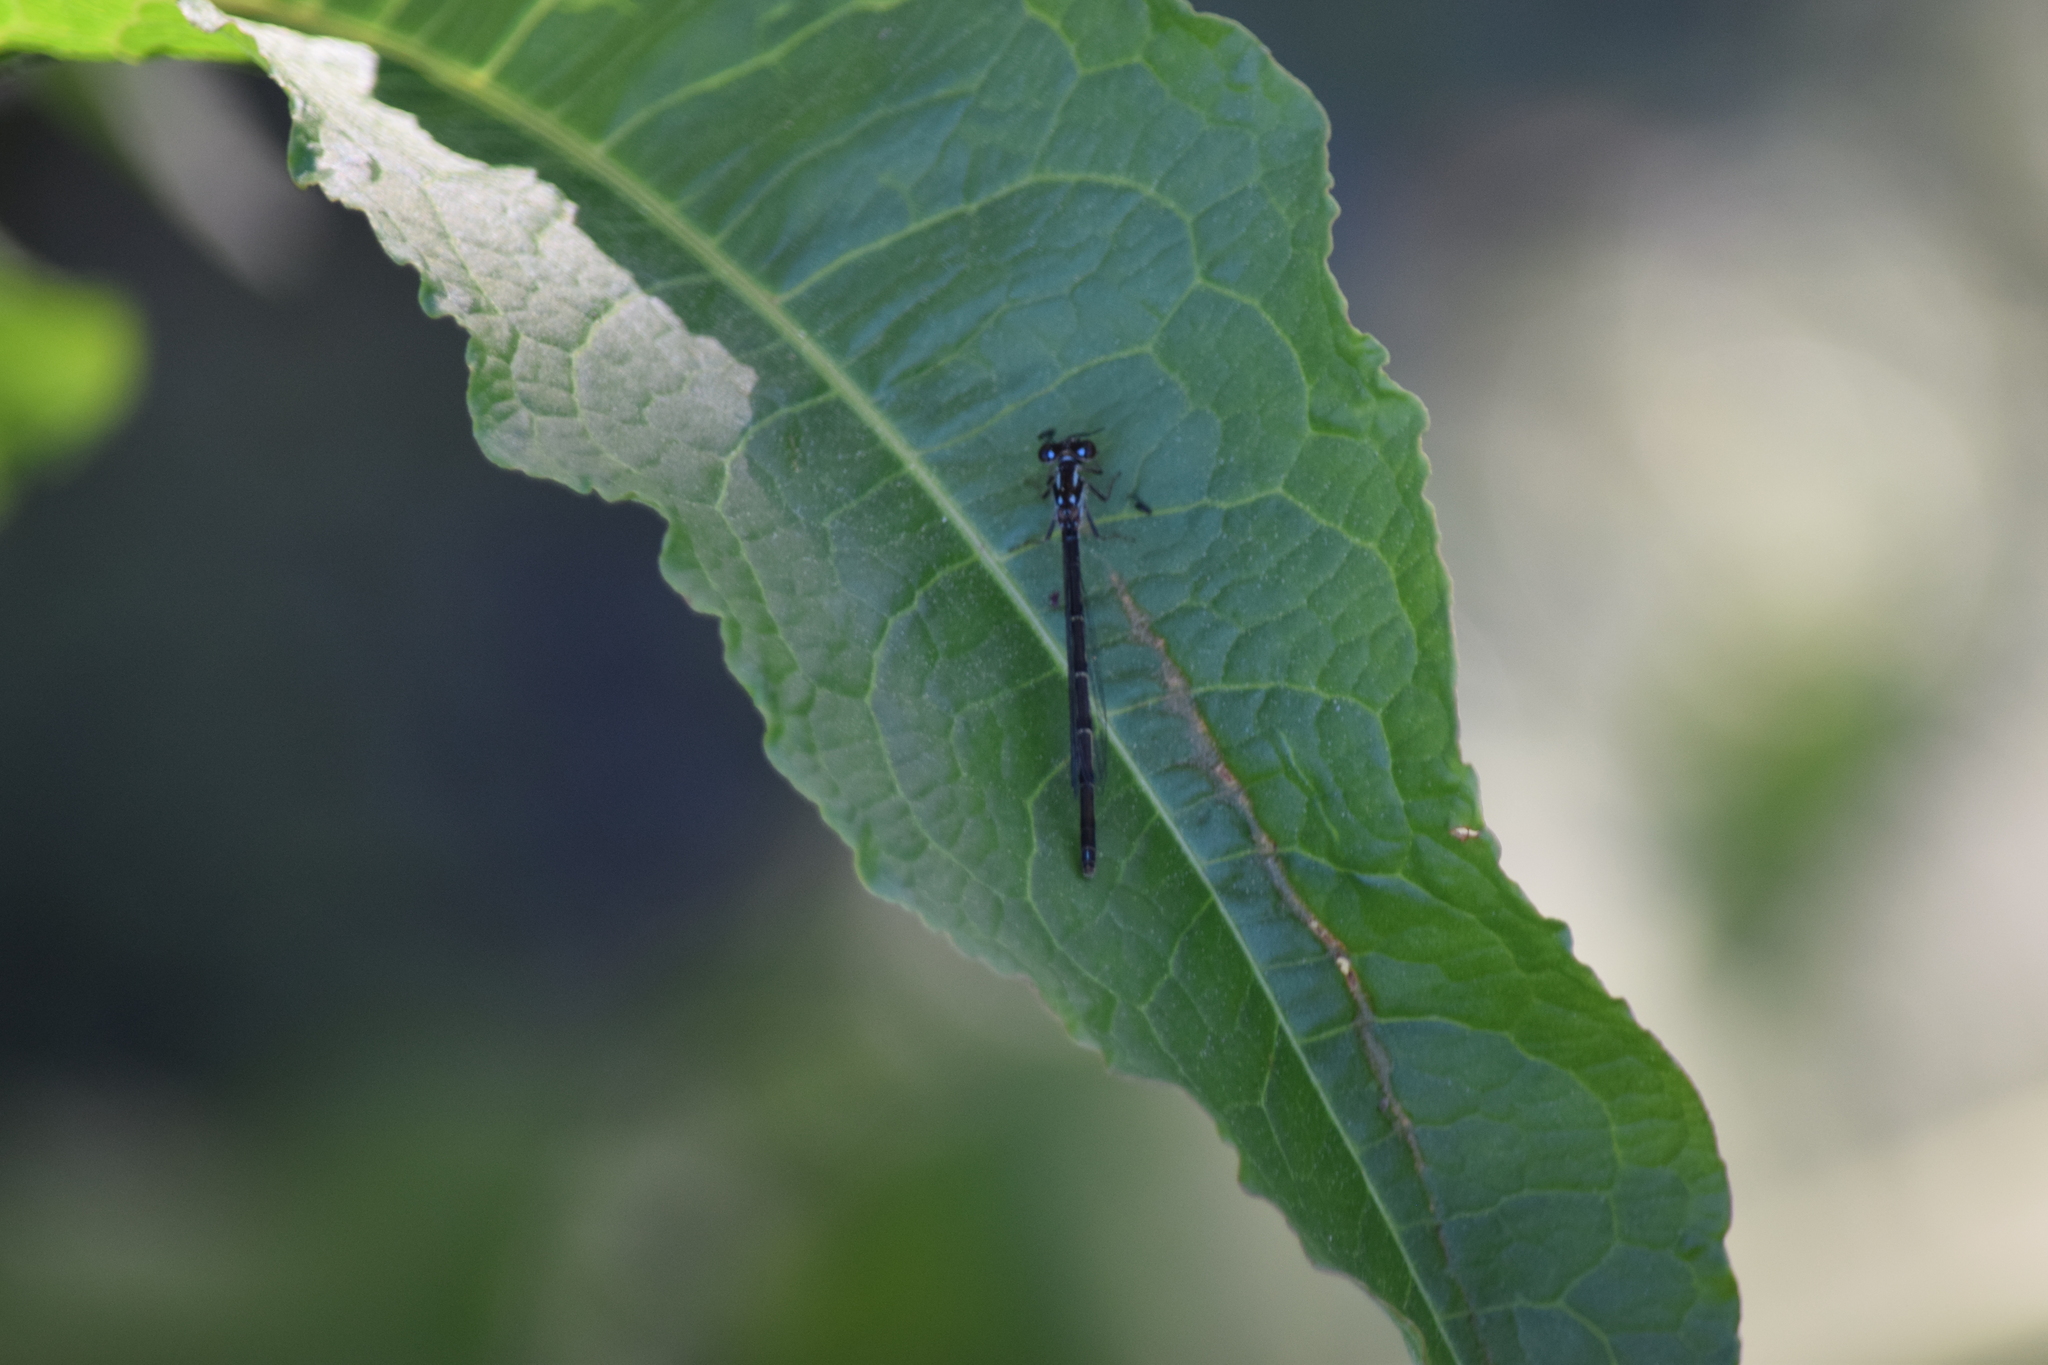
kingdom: Animalia
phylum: Arthropoda
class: Insecta
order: Odonata
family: Coenagrionidae
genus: Ischnura
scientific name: Ischnura posita
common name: Fragile forktail
